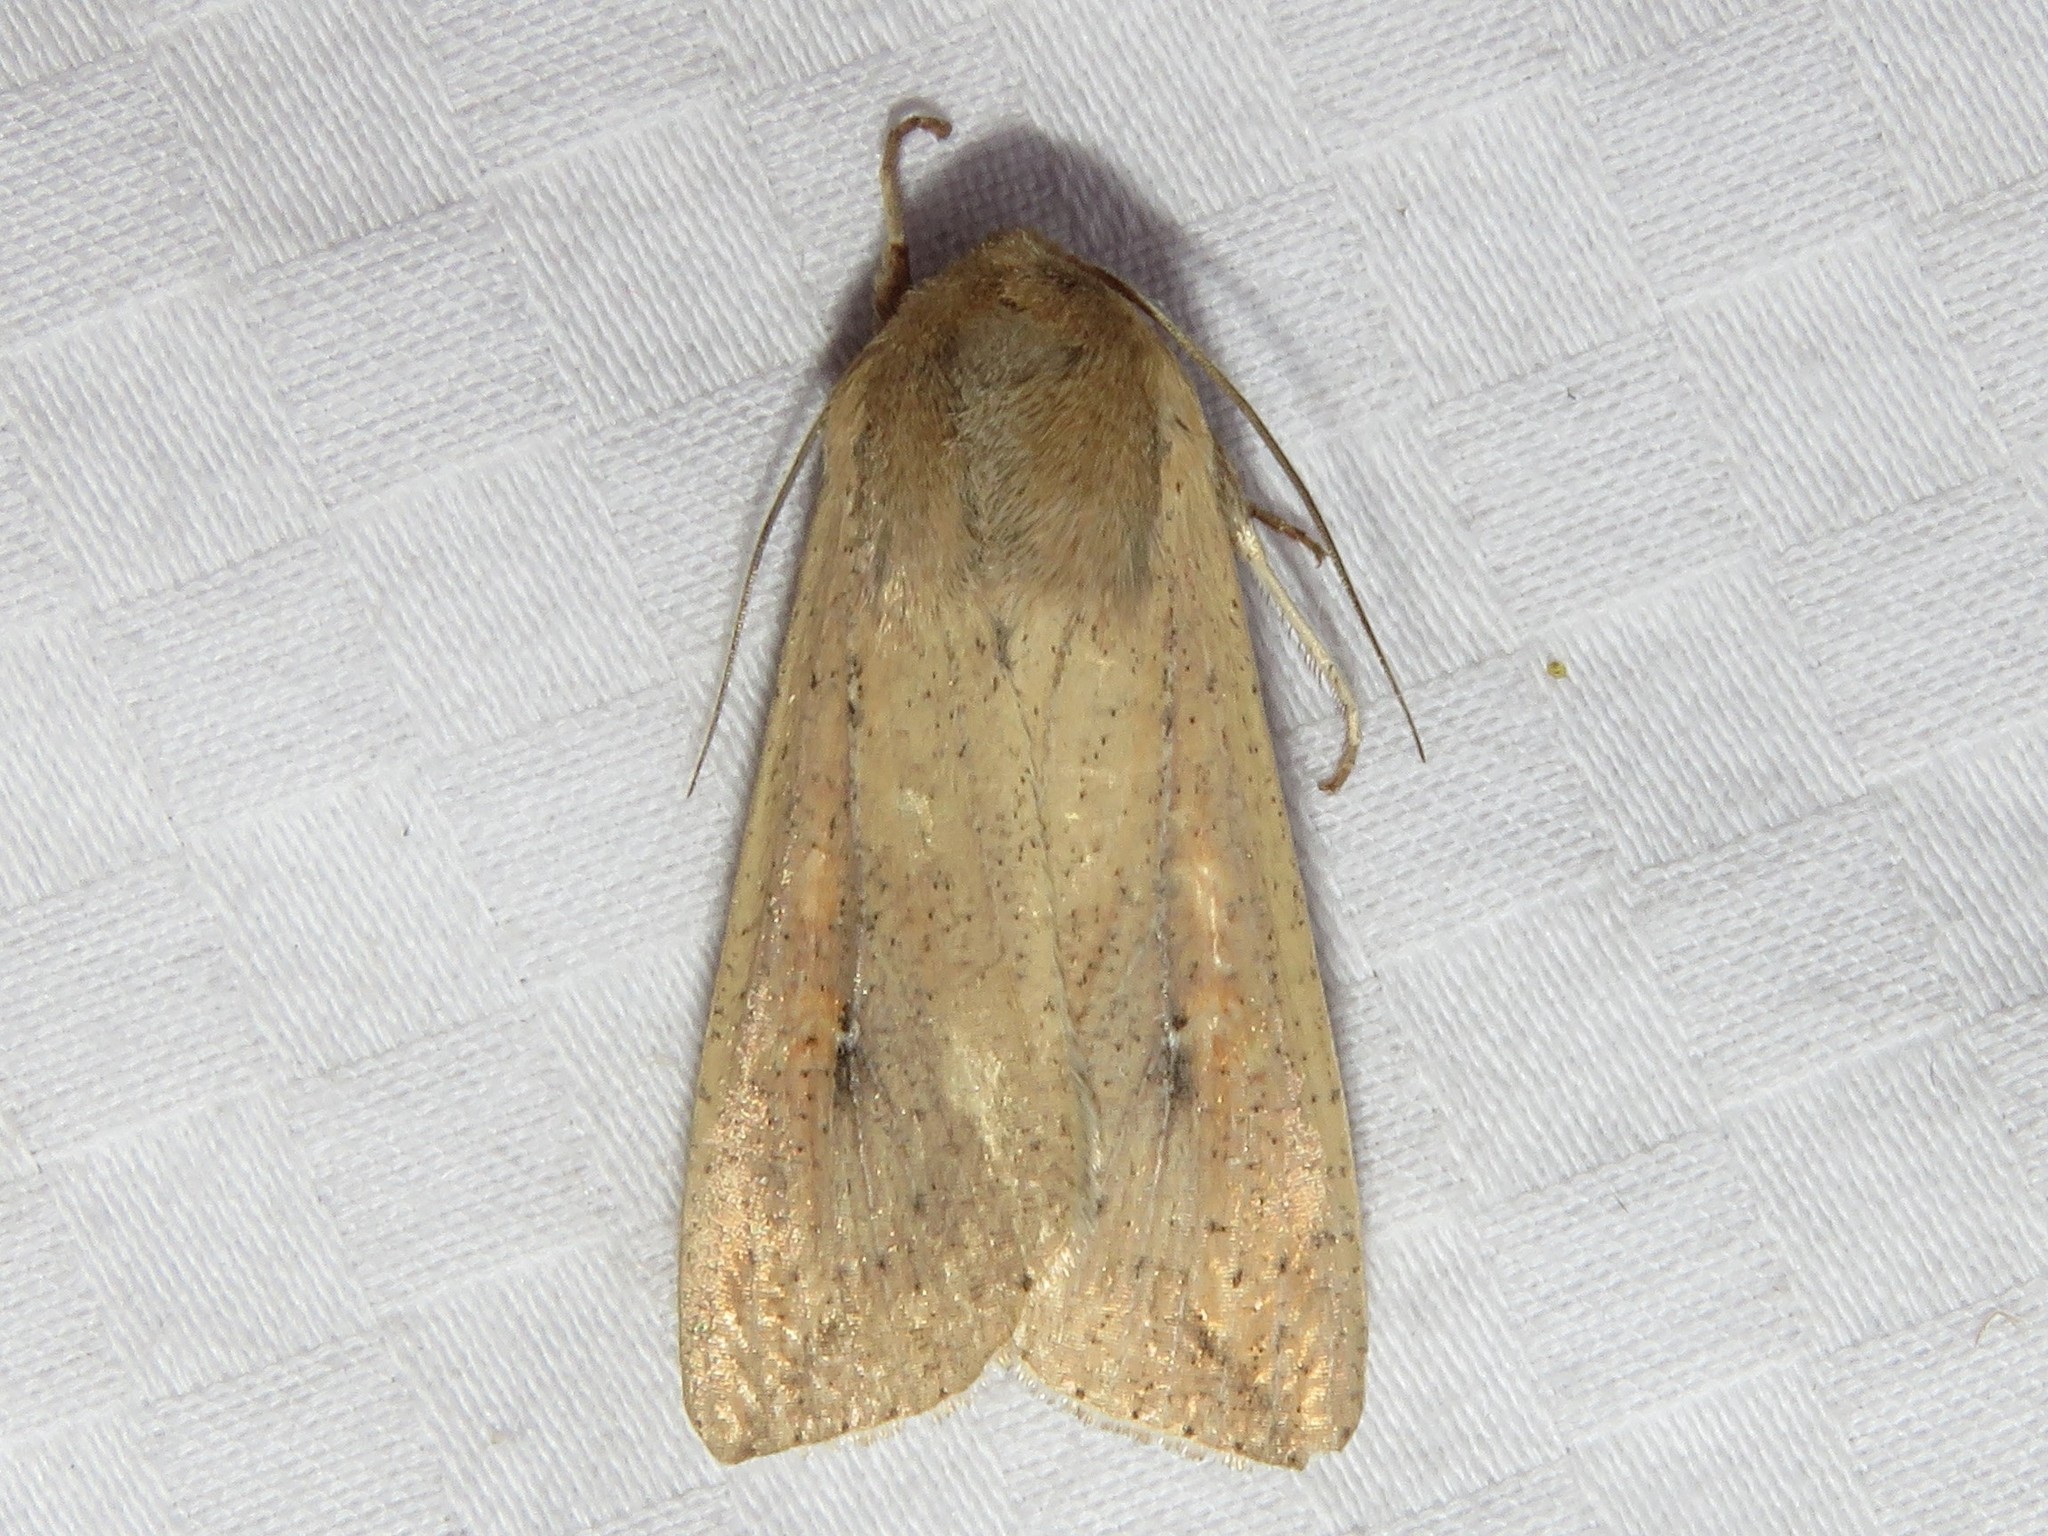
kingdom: Animalia
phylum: Arthropoda
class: Insecta
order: Lepidoptera
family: Noctuidae
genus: Mythimna
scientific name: Mythimna unipuncta
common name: White-speck
